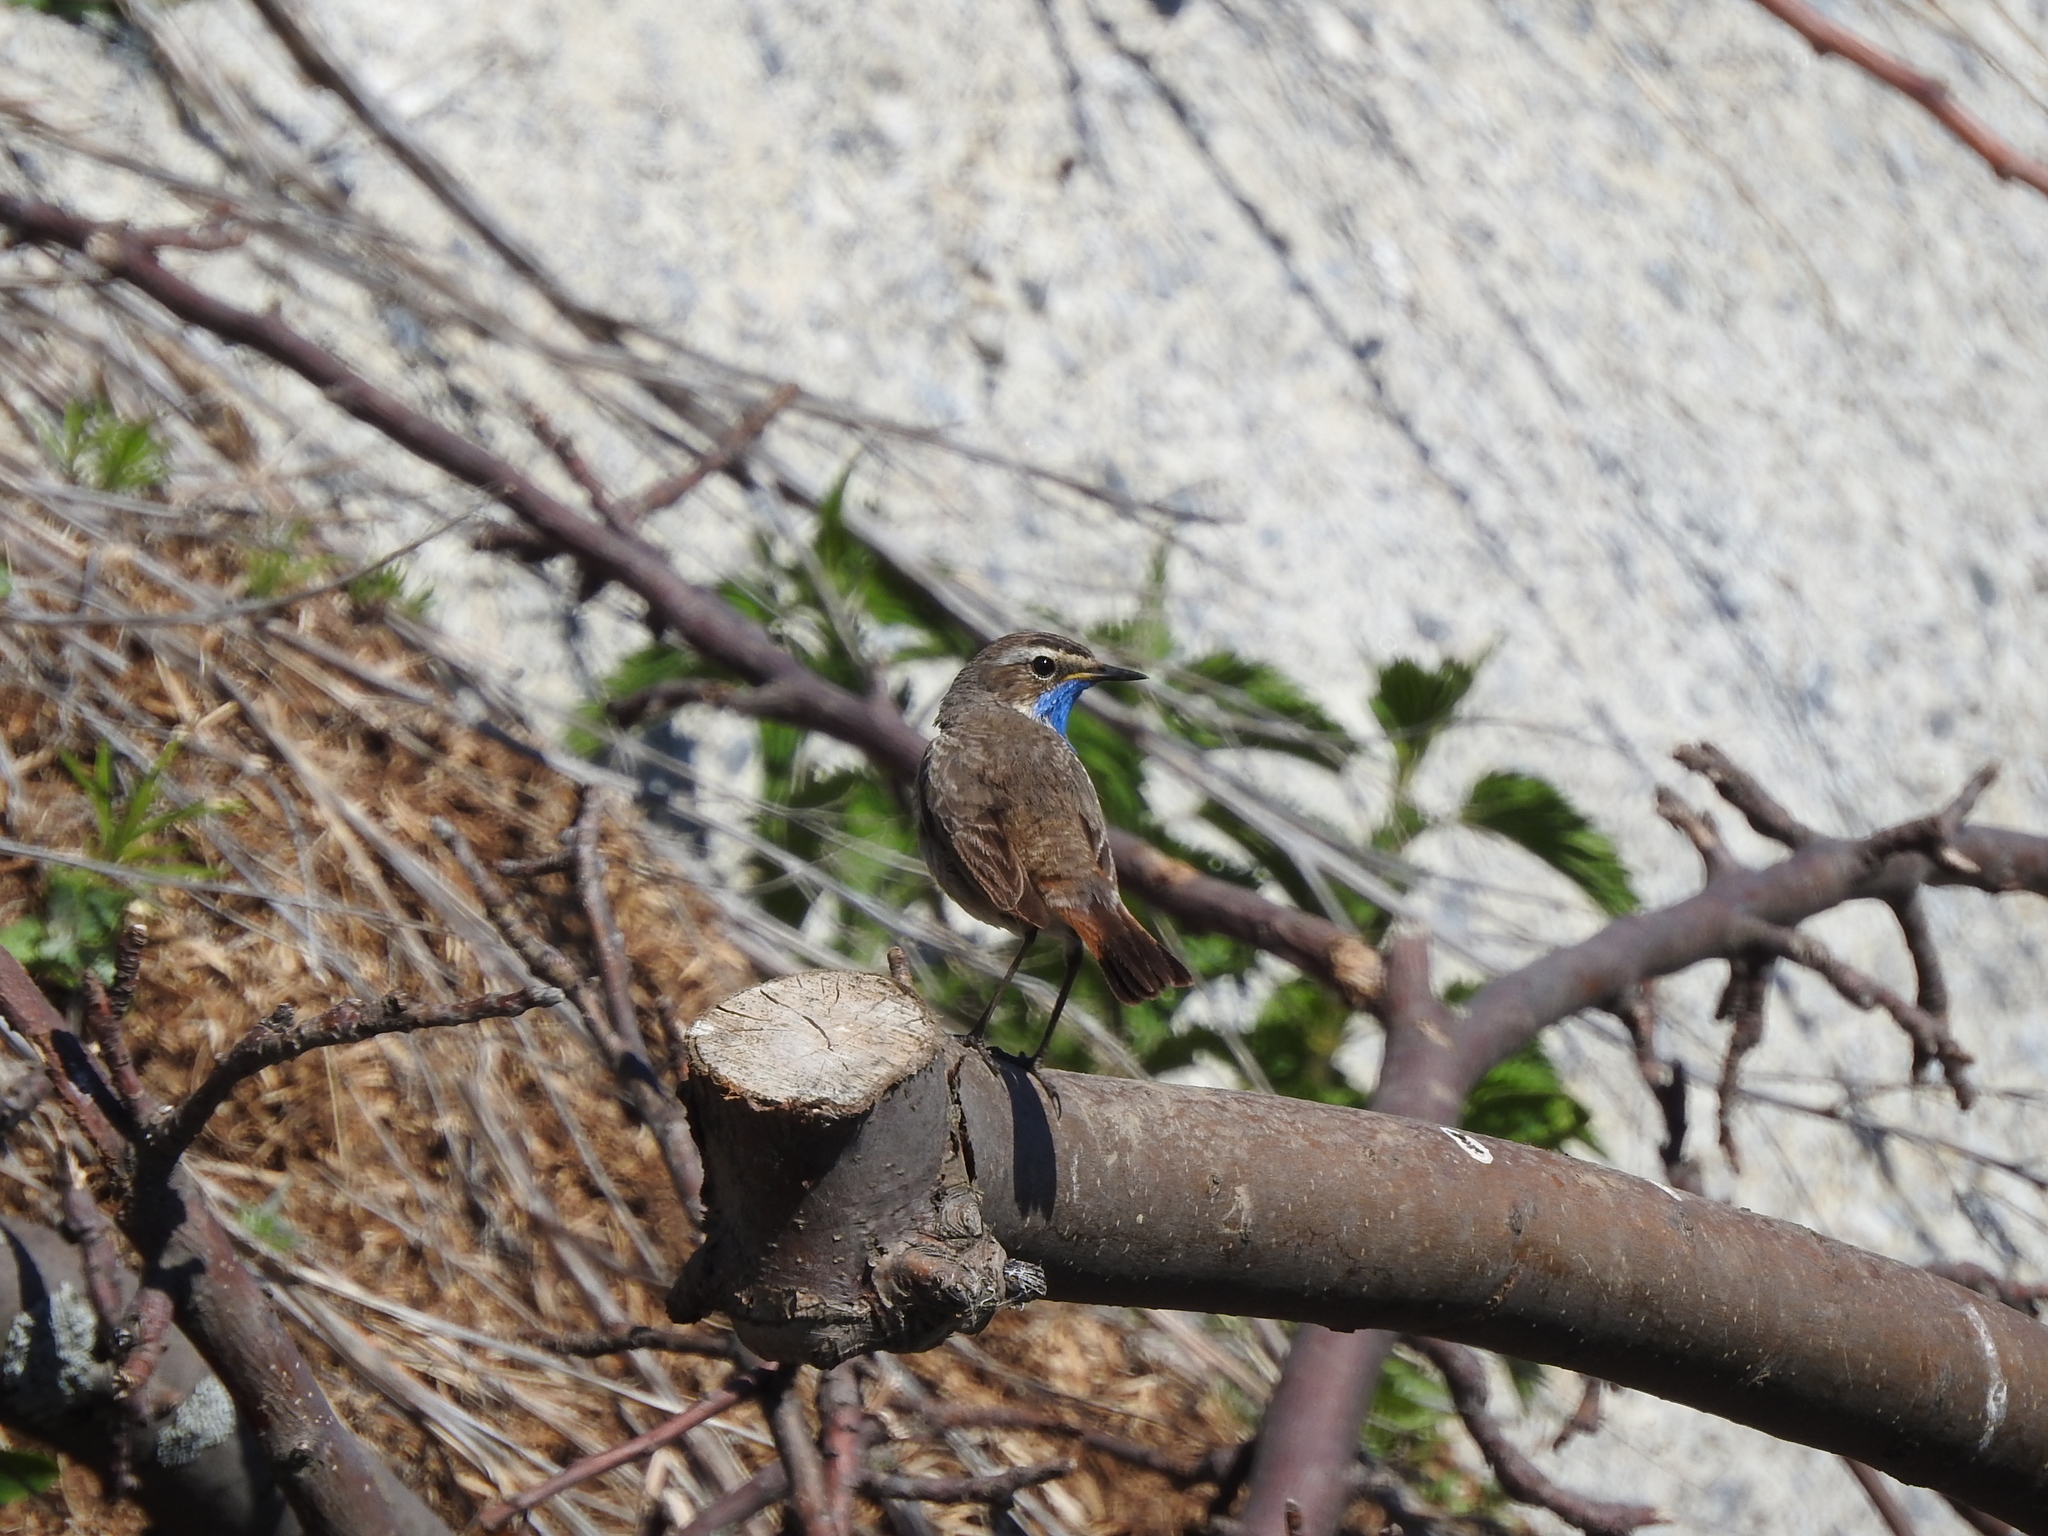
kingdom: Animalia
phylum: Chordata
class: Aves
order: Passeriformes
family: Muscicapidae
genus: Luscinia
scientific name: Luscinia svecica
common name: Bluethroat
